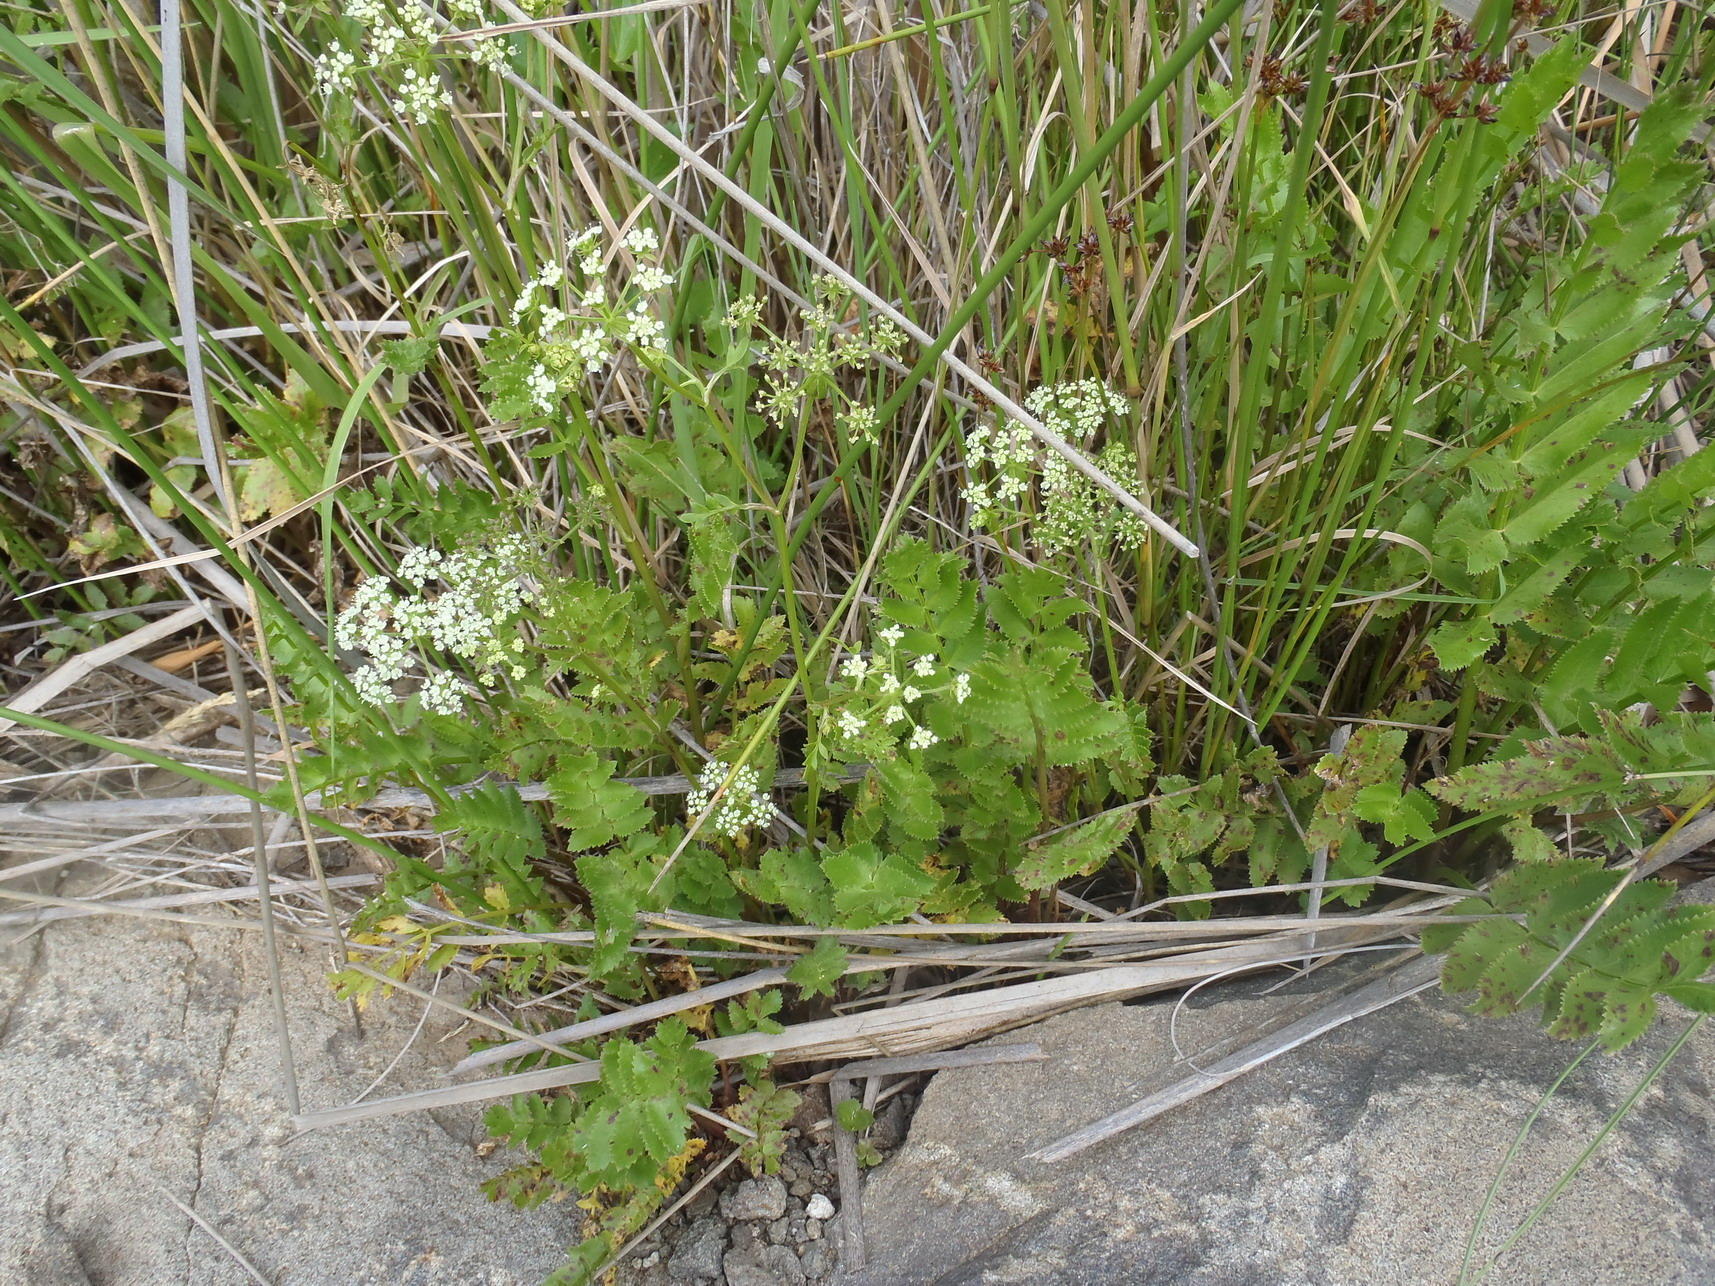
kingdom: Plantae
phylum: Tracheophyta
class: Magnoliopsida
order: Apiales
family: Apiaceae
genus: Berula
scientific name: Berula thunbergii
